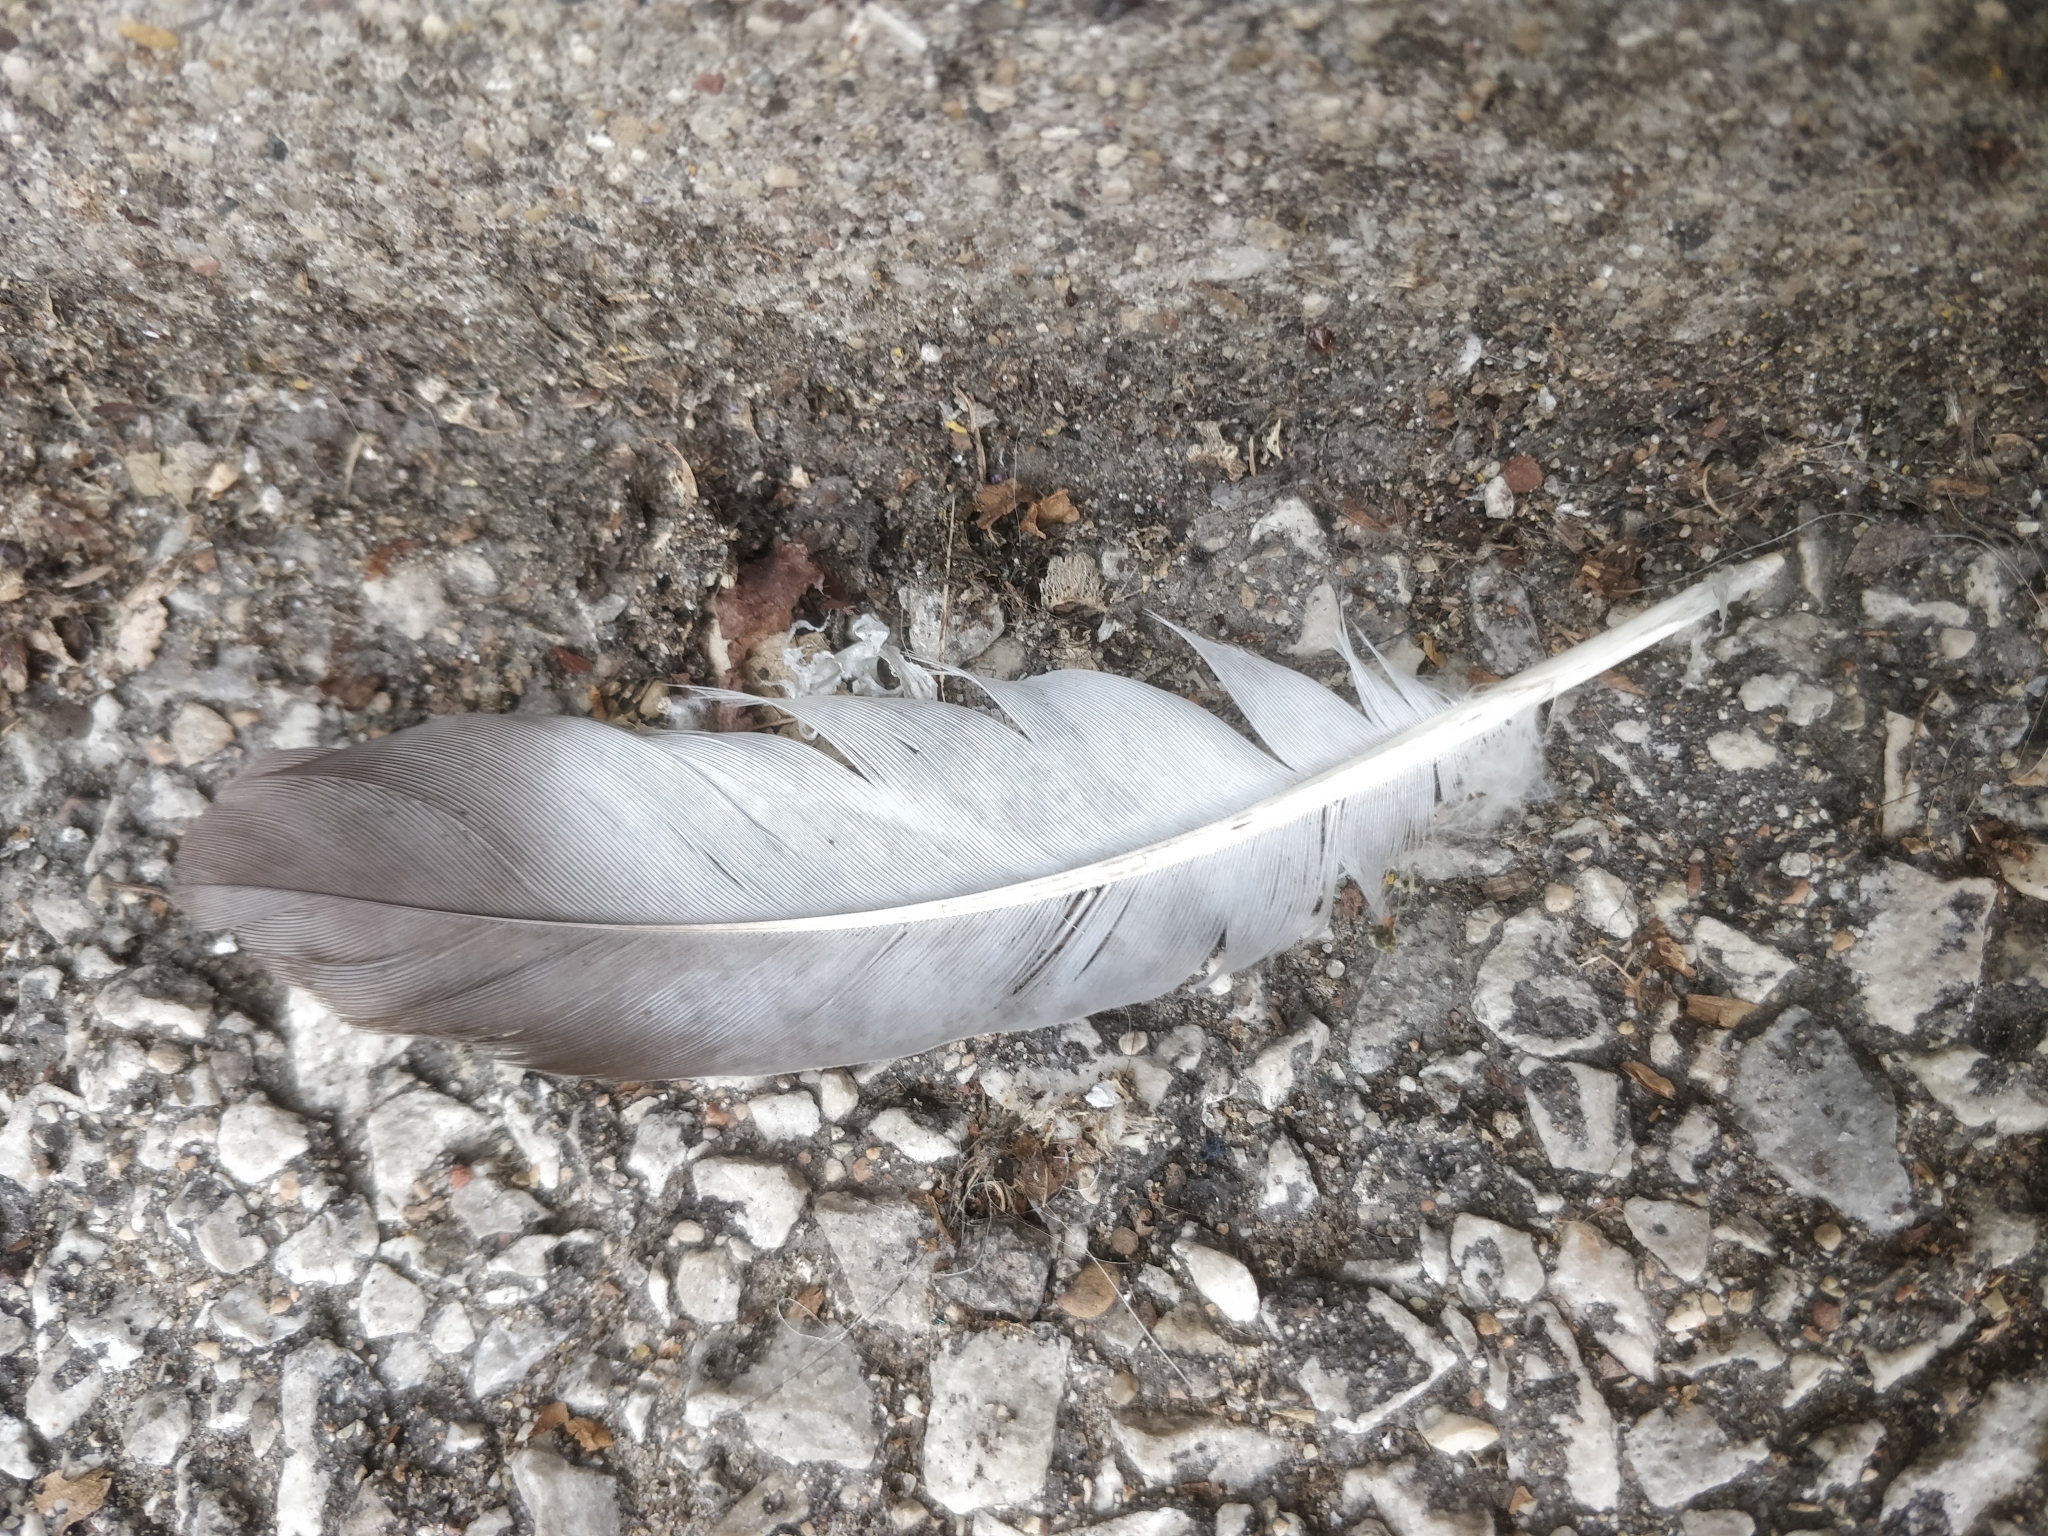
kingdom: Animalia
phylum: Chordata
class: Aves
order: Columbiformes
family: Columbidae
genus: Columba
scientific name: Columba livia
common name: Rock pigeon
